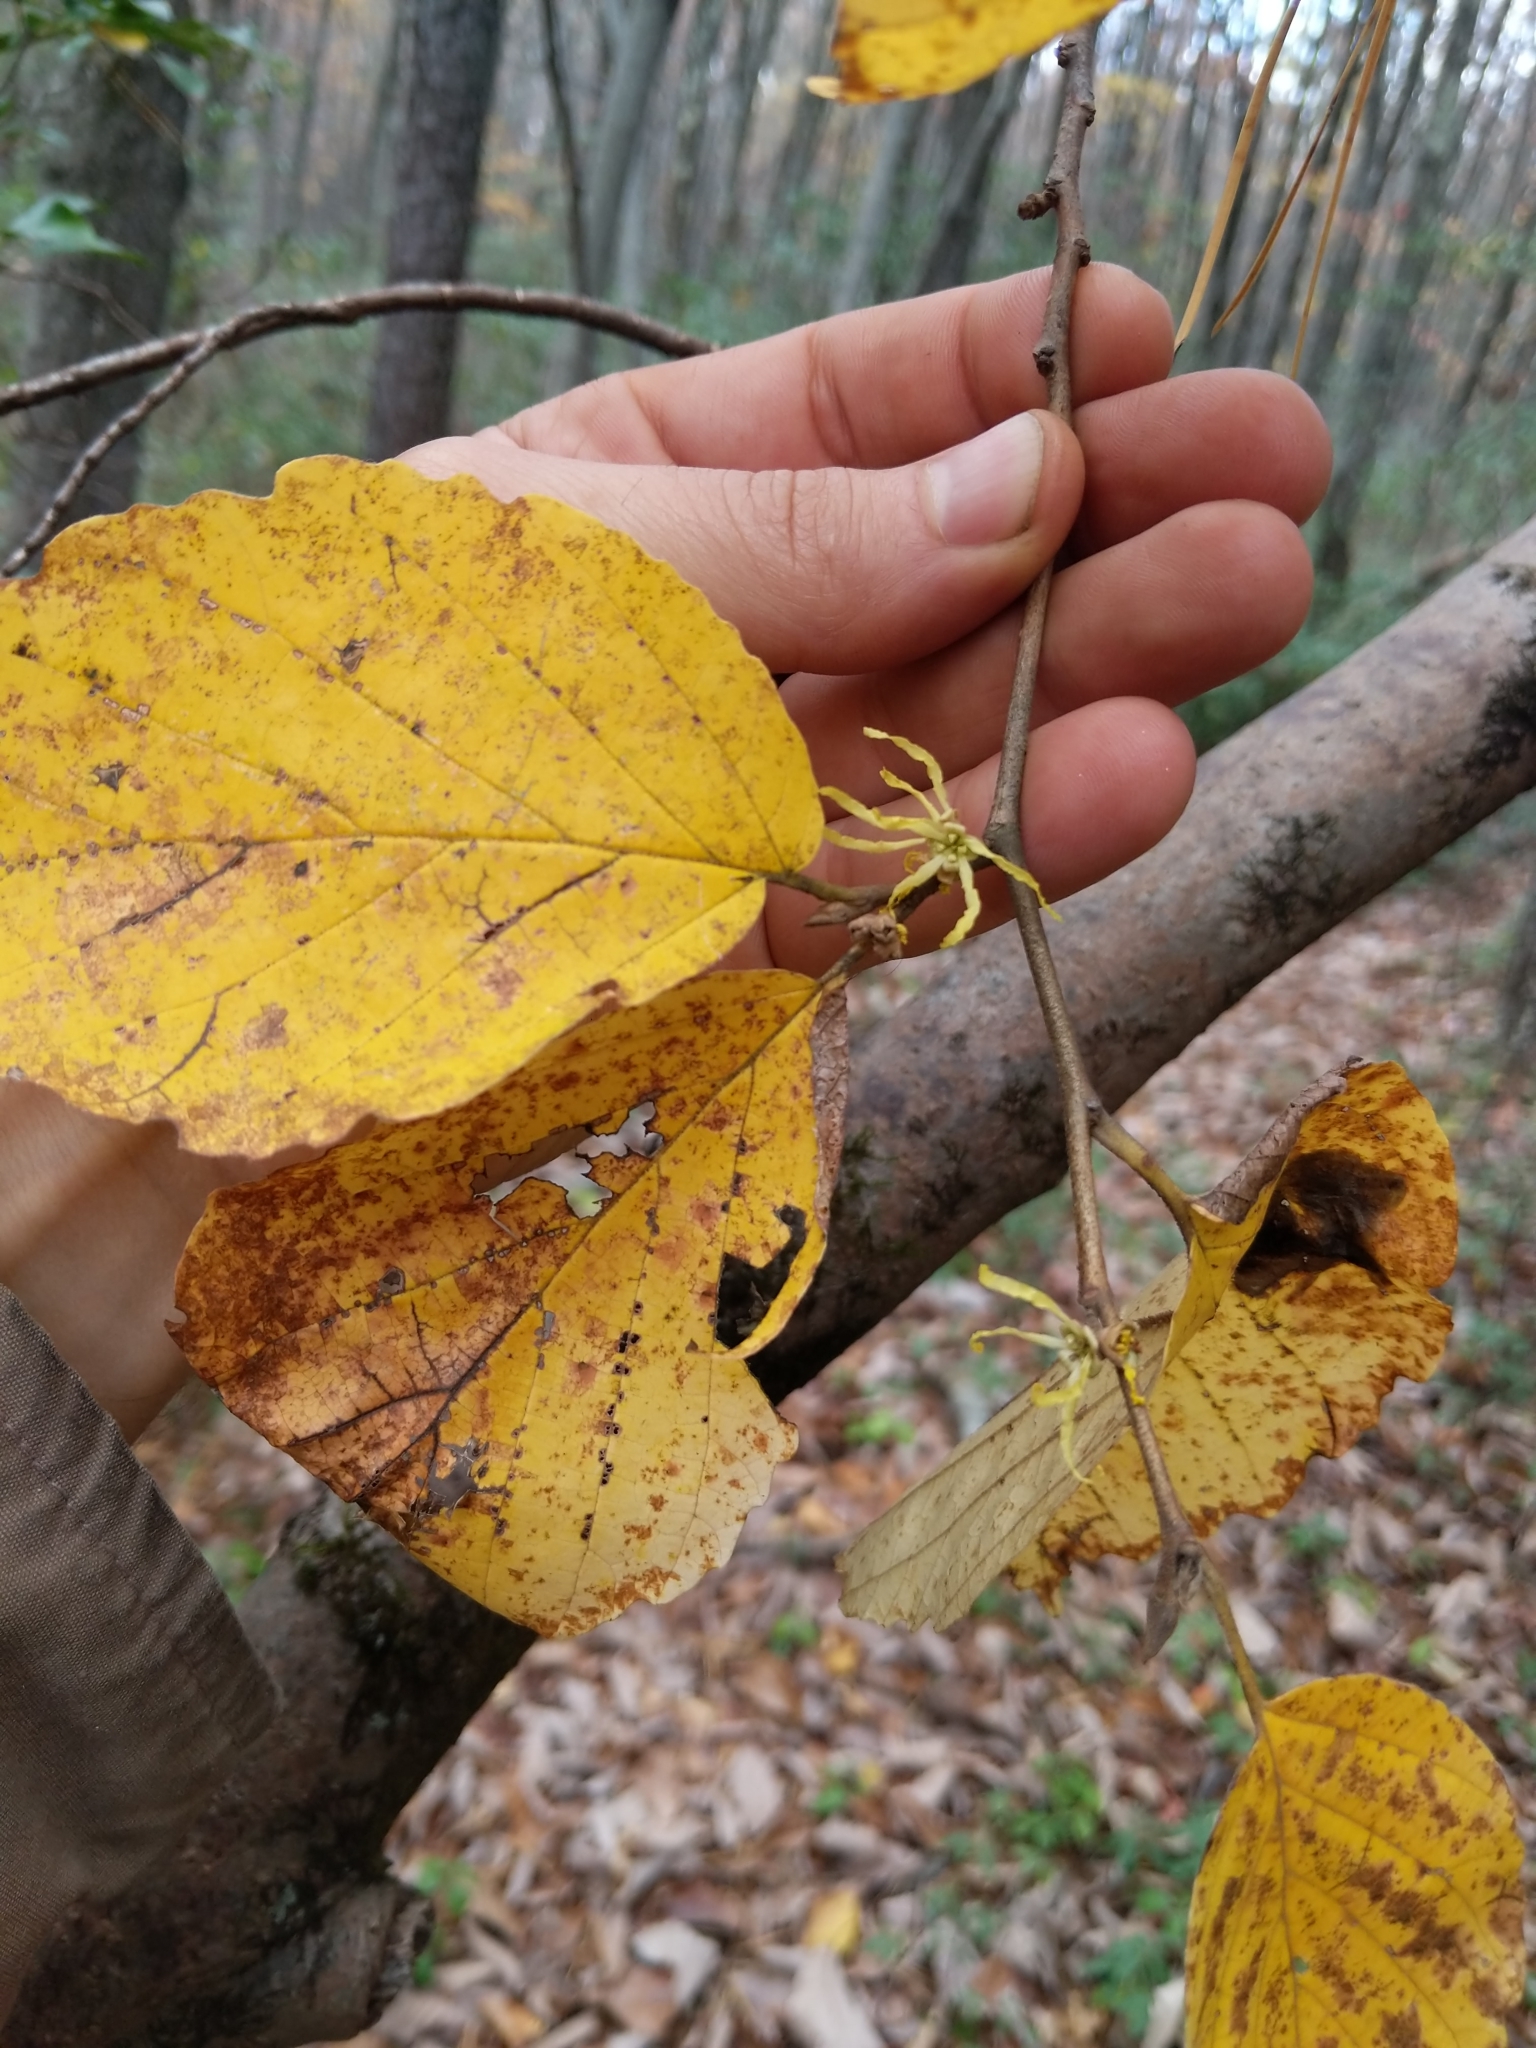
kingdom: Plantae
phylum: Tracheophyta
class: Magnoliopsida
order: Saxifragales
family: Hamamelidaceae
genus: Hamamelis
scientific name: Hamamelis virginiana
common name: Witch-hazel
